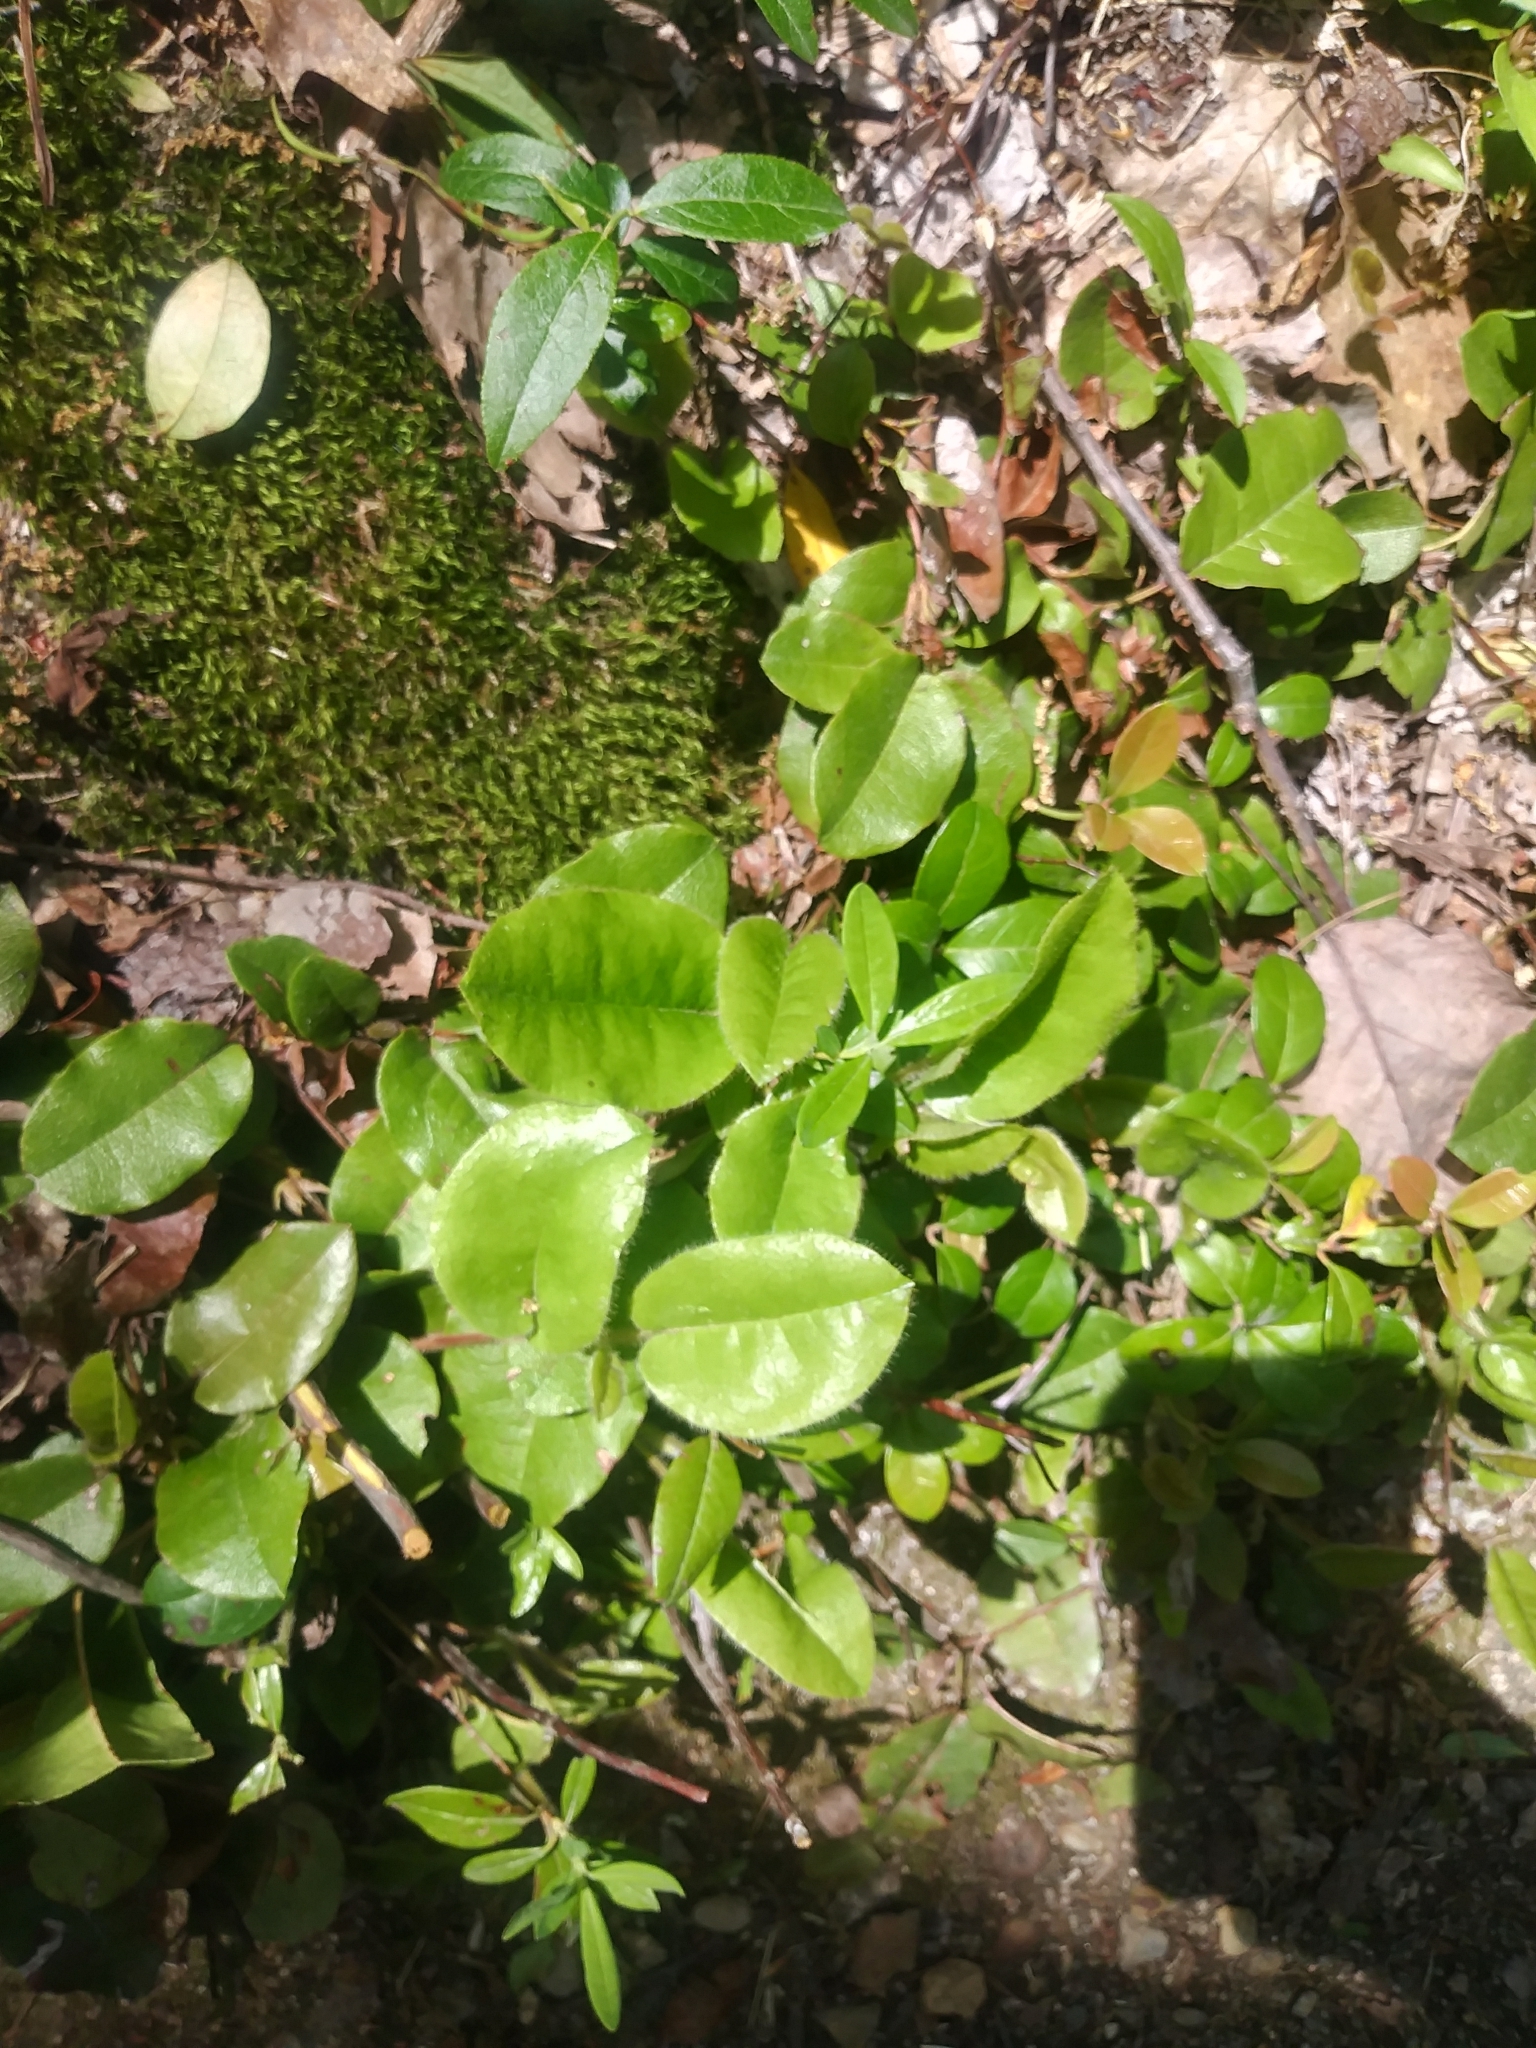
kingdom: Plantae
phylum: Tracheophyta
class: Magnoliopsida
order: Ericales
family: Ericaceae
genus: Epigaea
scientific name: Epigaea repens
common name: Gravelroot
